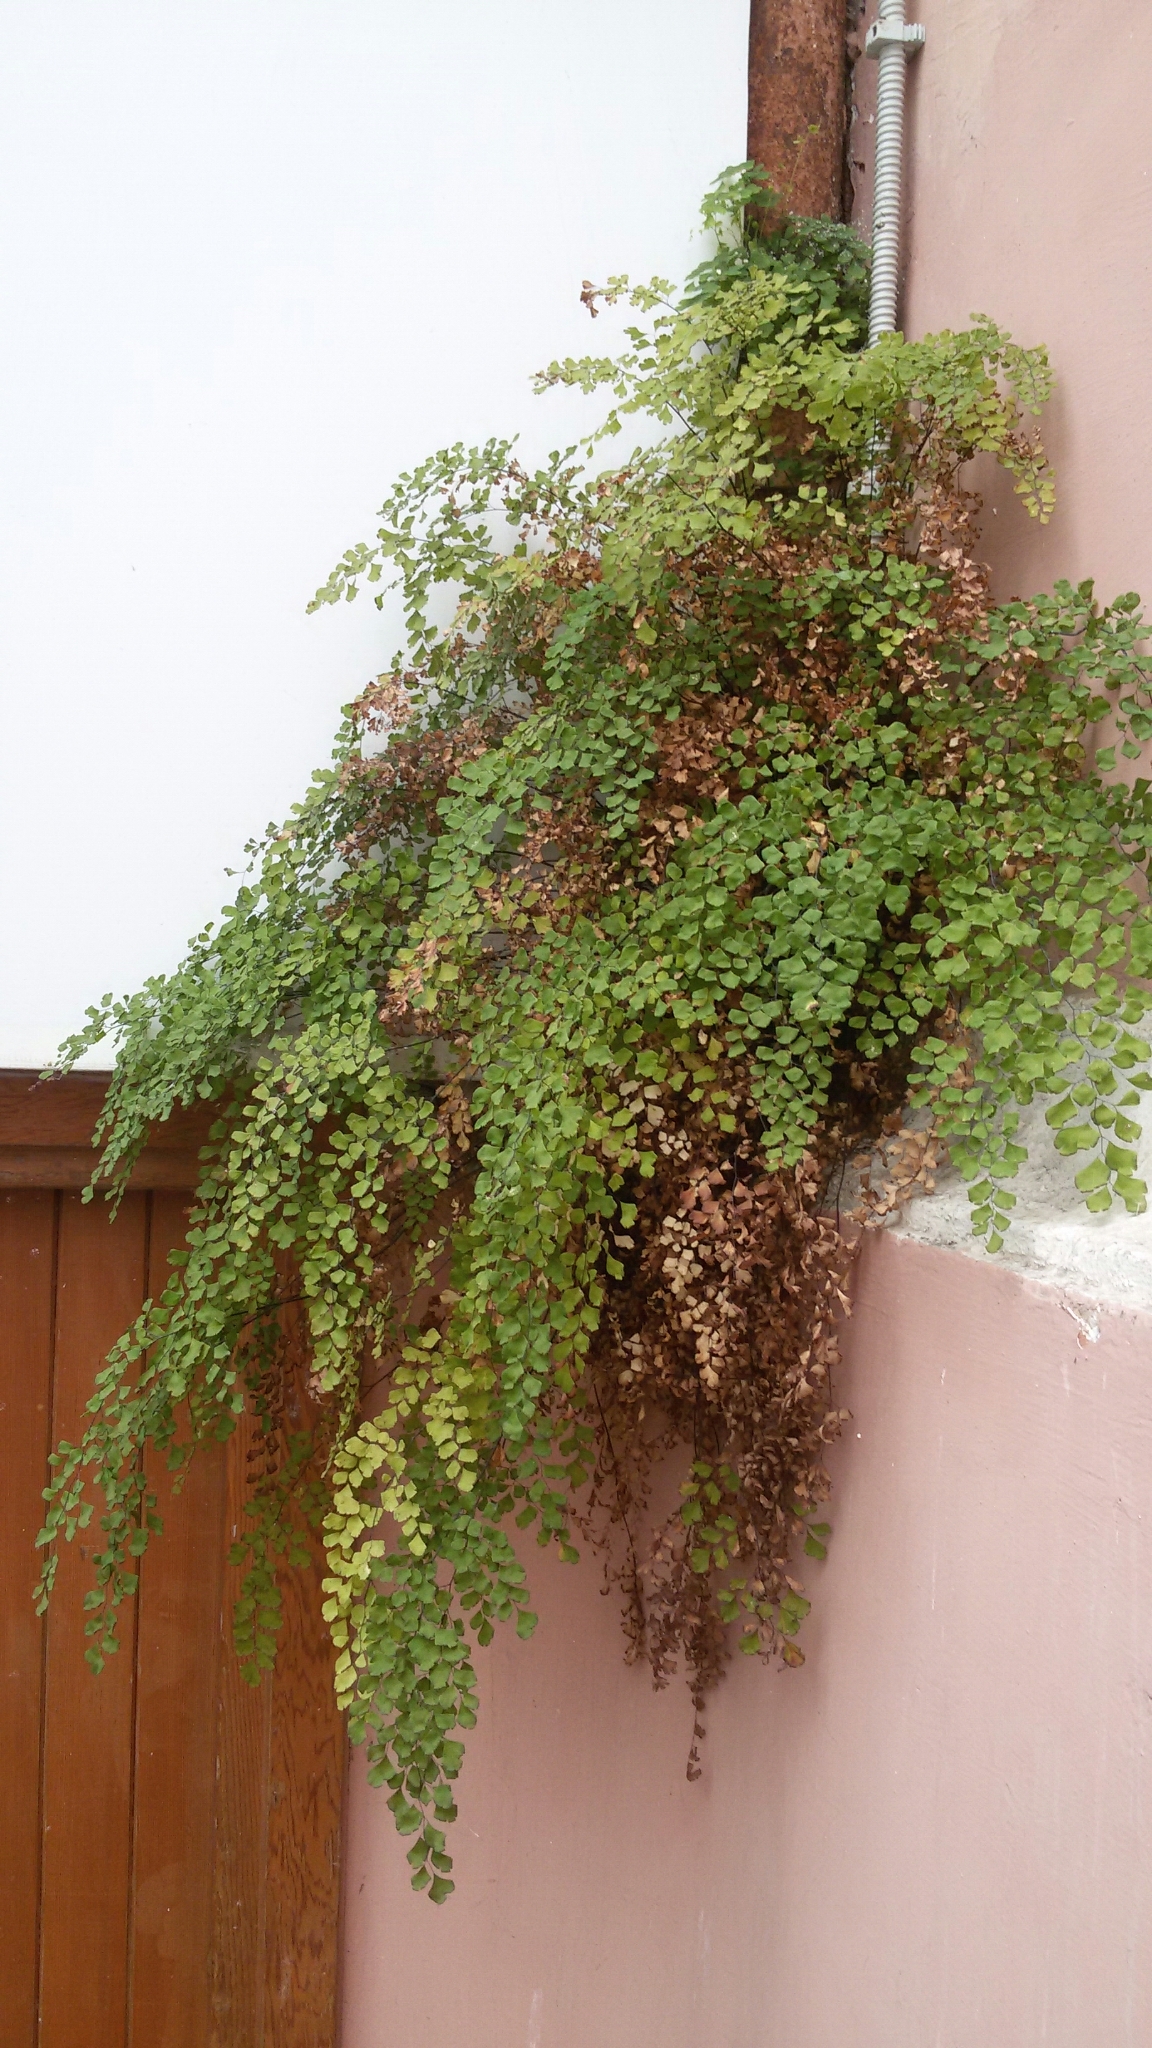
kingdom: Plantae
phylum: Tracheophyta
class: Polypodiopsida
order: Polypodiales
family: Pteridaceae
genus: Adiantum
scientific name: Adiantum capillus-veneris
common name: Maidenhair fern
